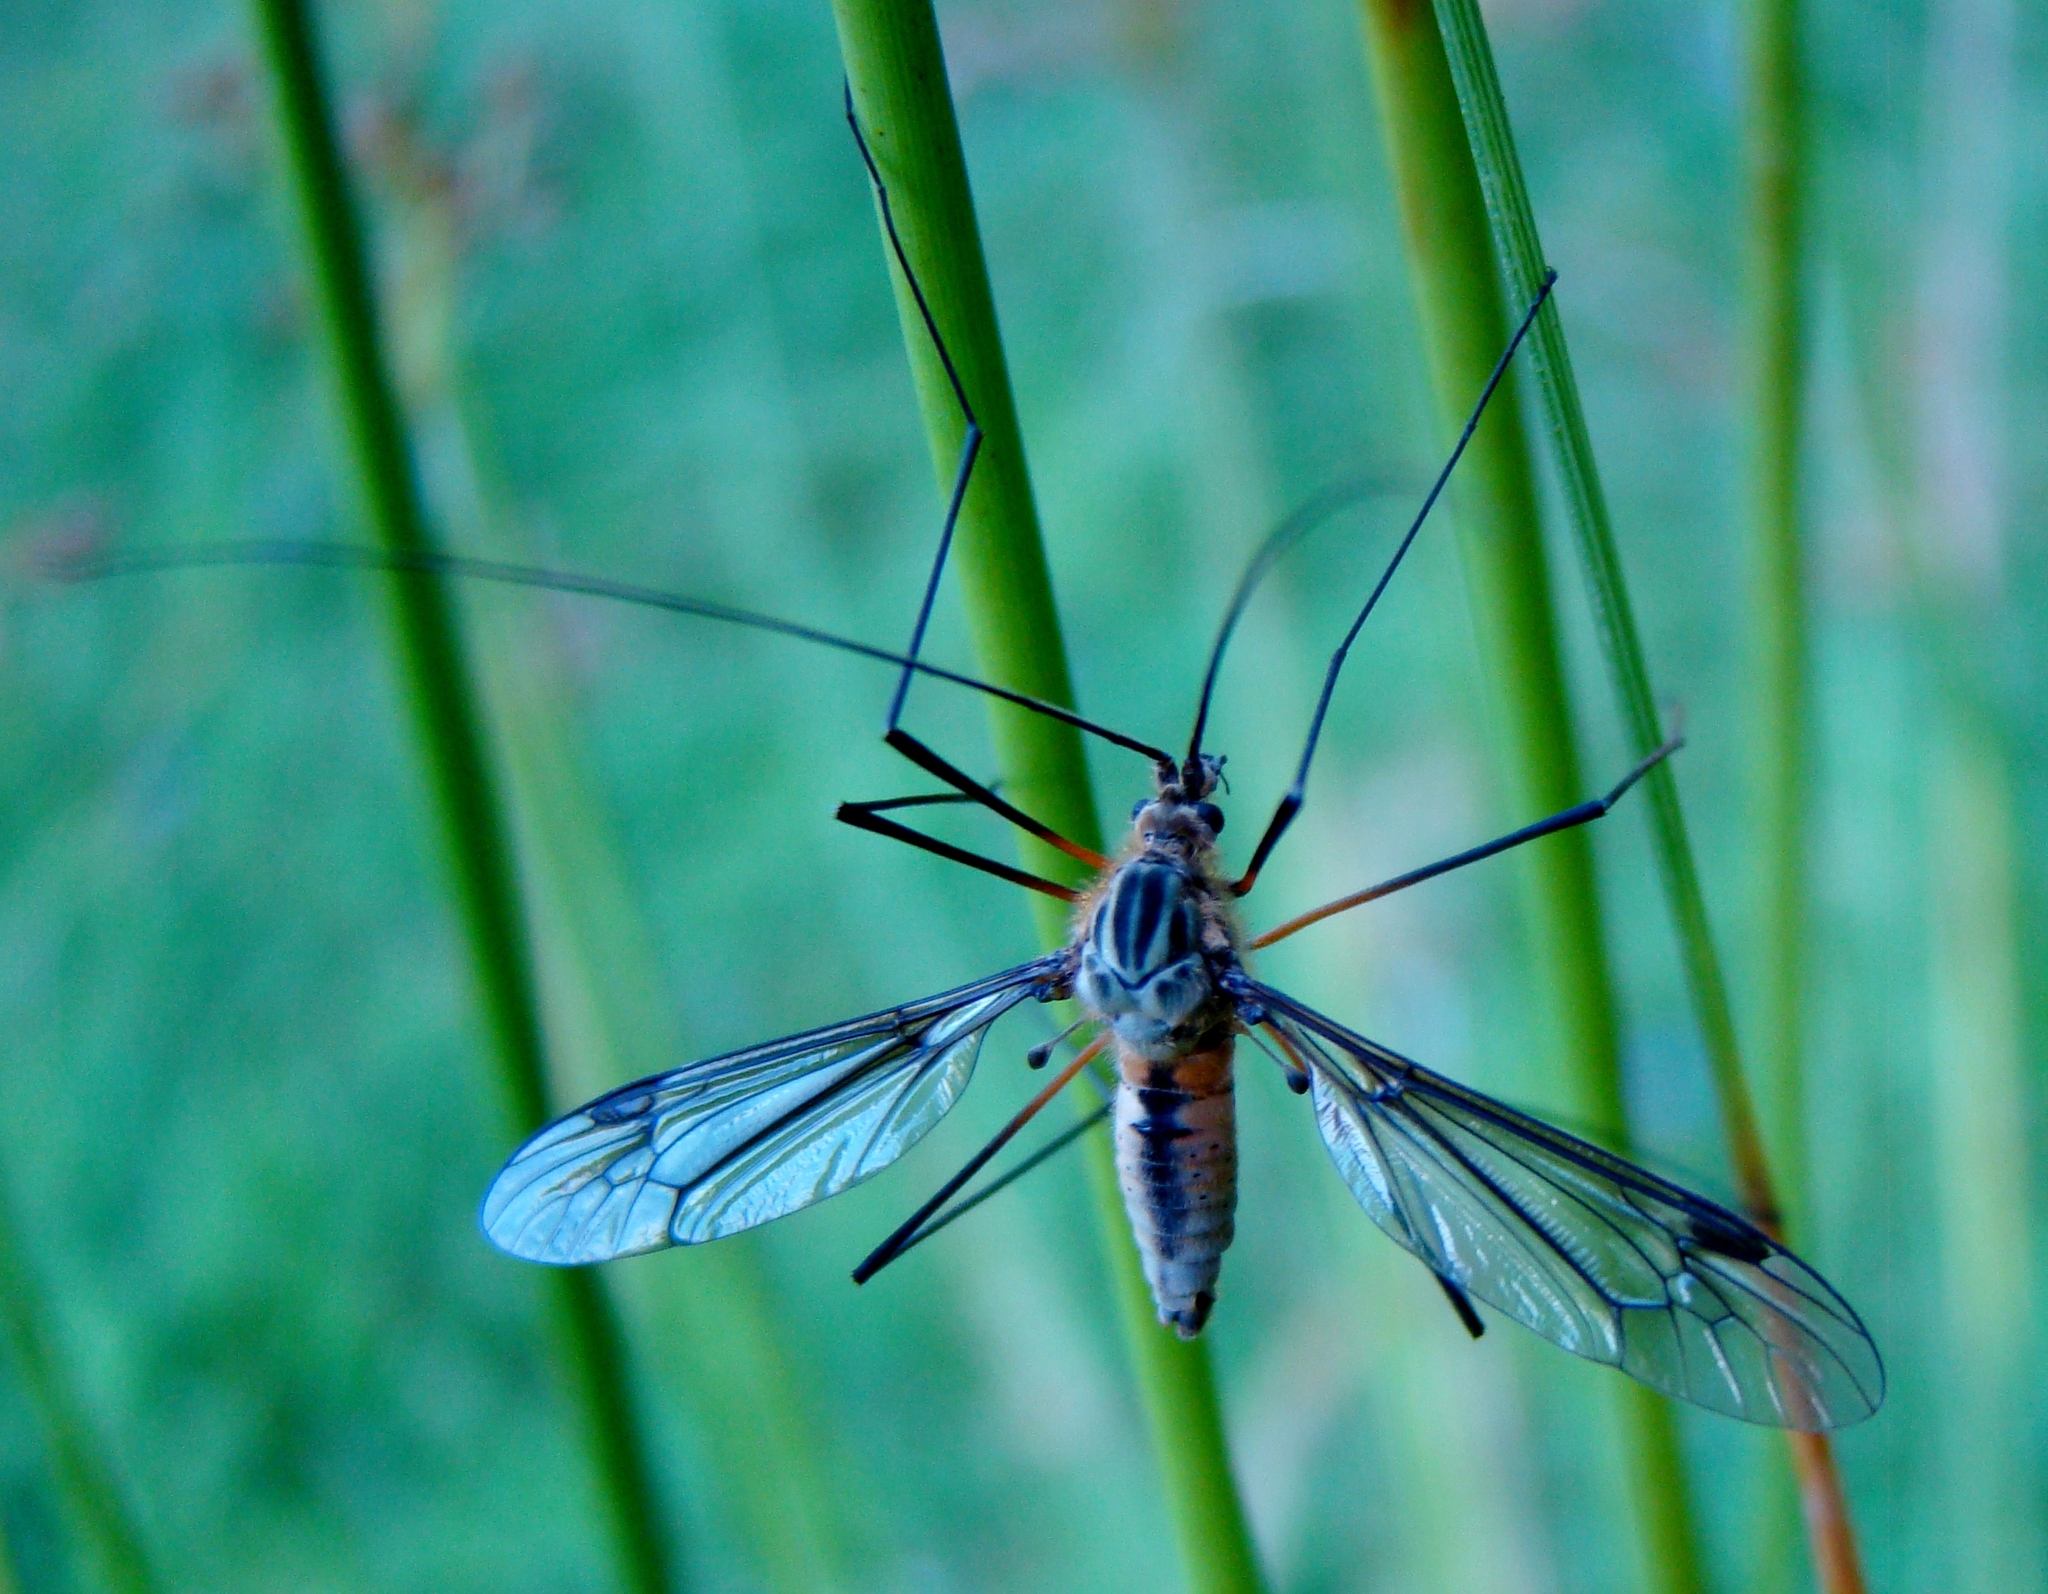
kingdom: Animalia
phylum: Arthropoda
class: Insecta
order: Diptera
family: Tipulidae
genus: Leptotarsus
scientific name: Leptotarsus vulpinus
